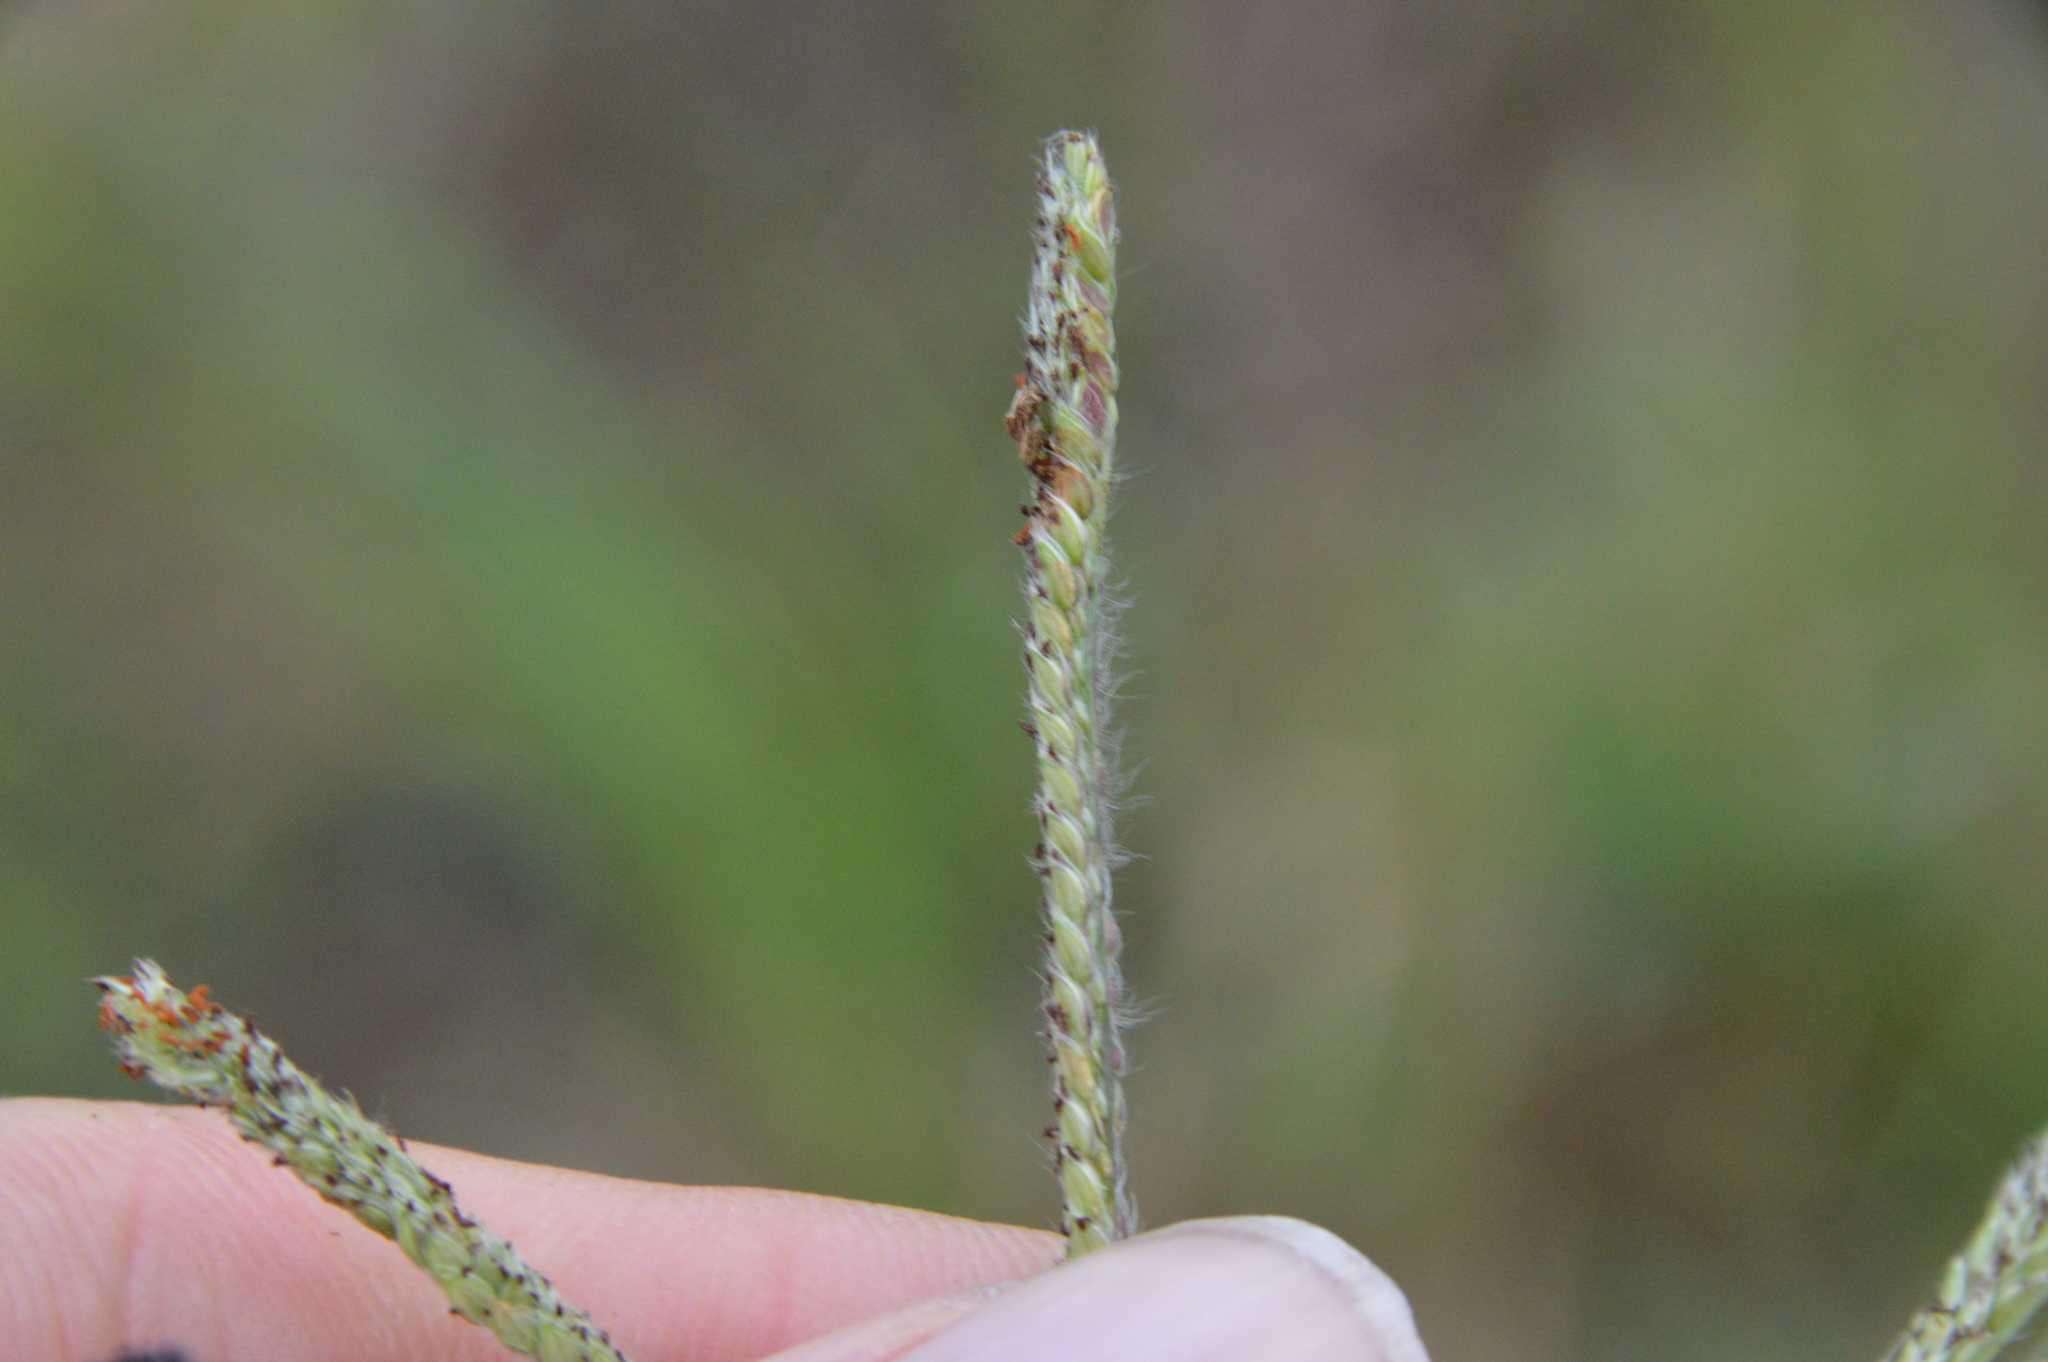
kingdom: Plantae
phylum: Tracheophyta
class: Liliopsida
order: Poales
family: Poaceae
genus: Paspalum
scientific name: Paspalum urvillei
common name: Vasey's grass
